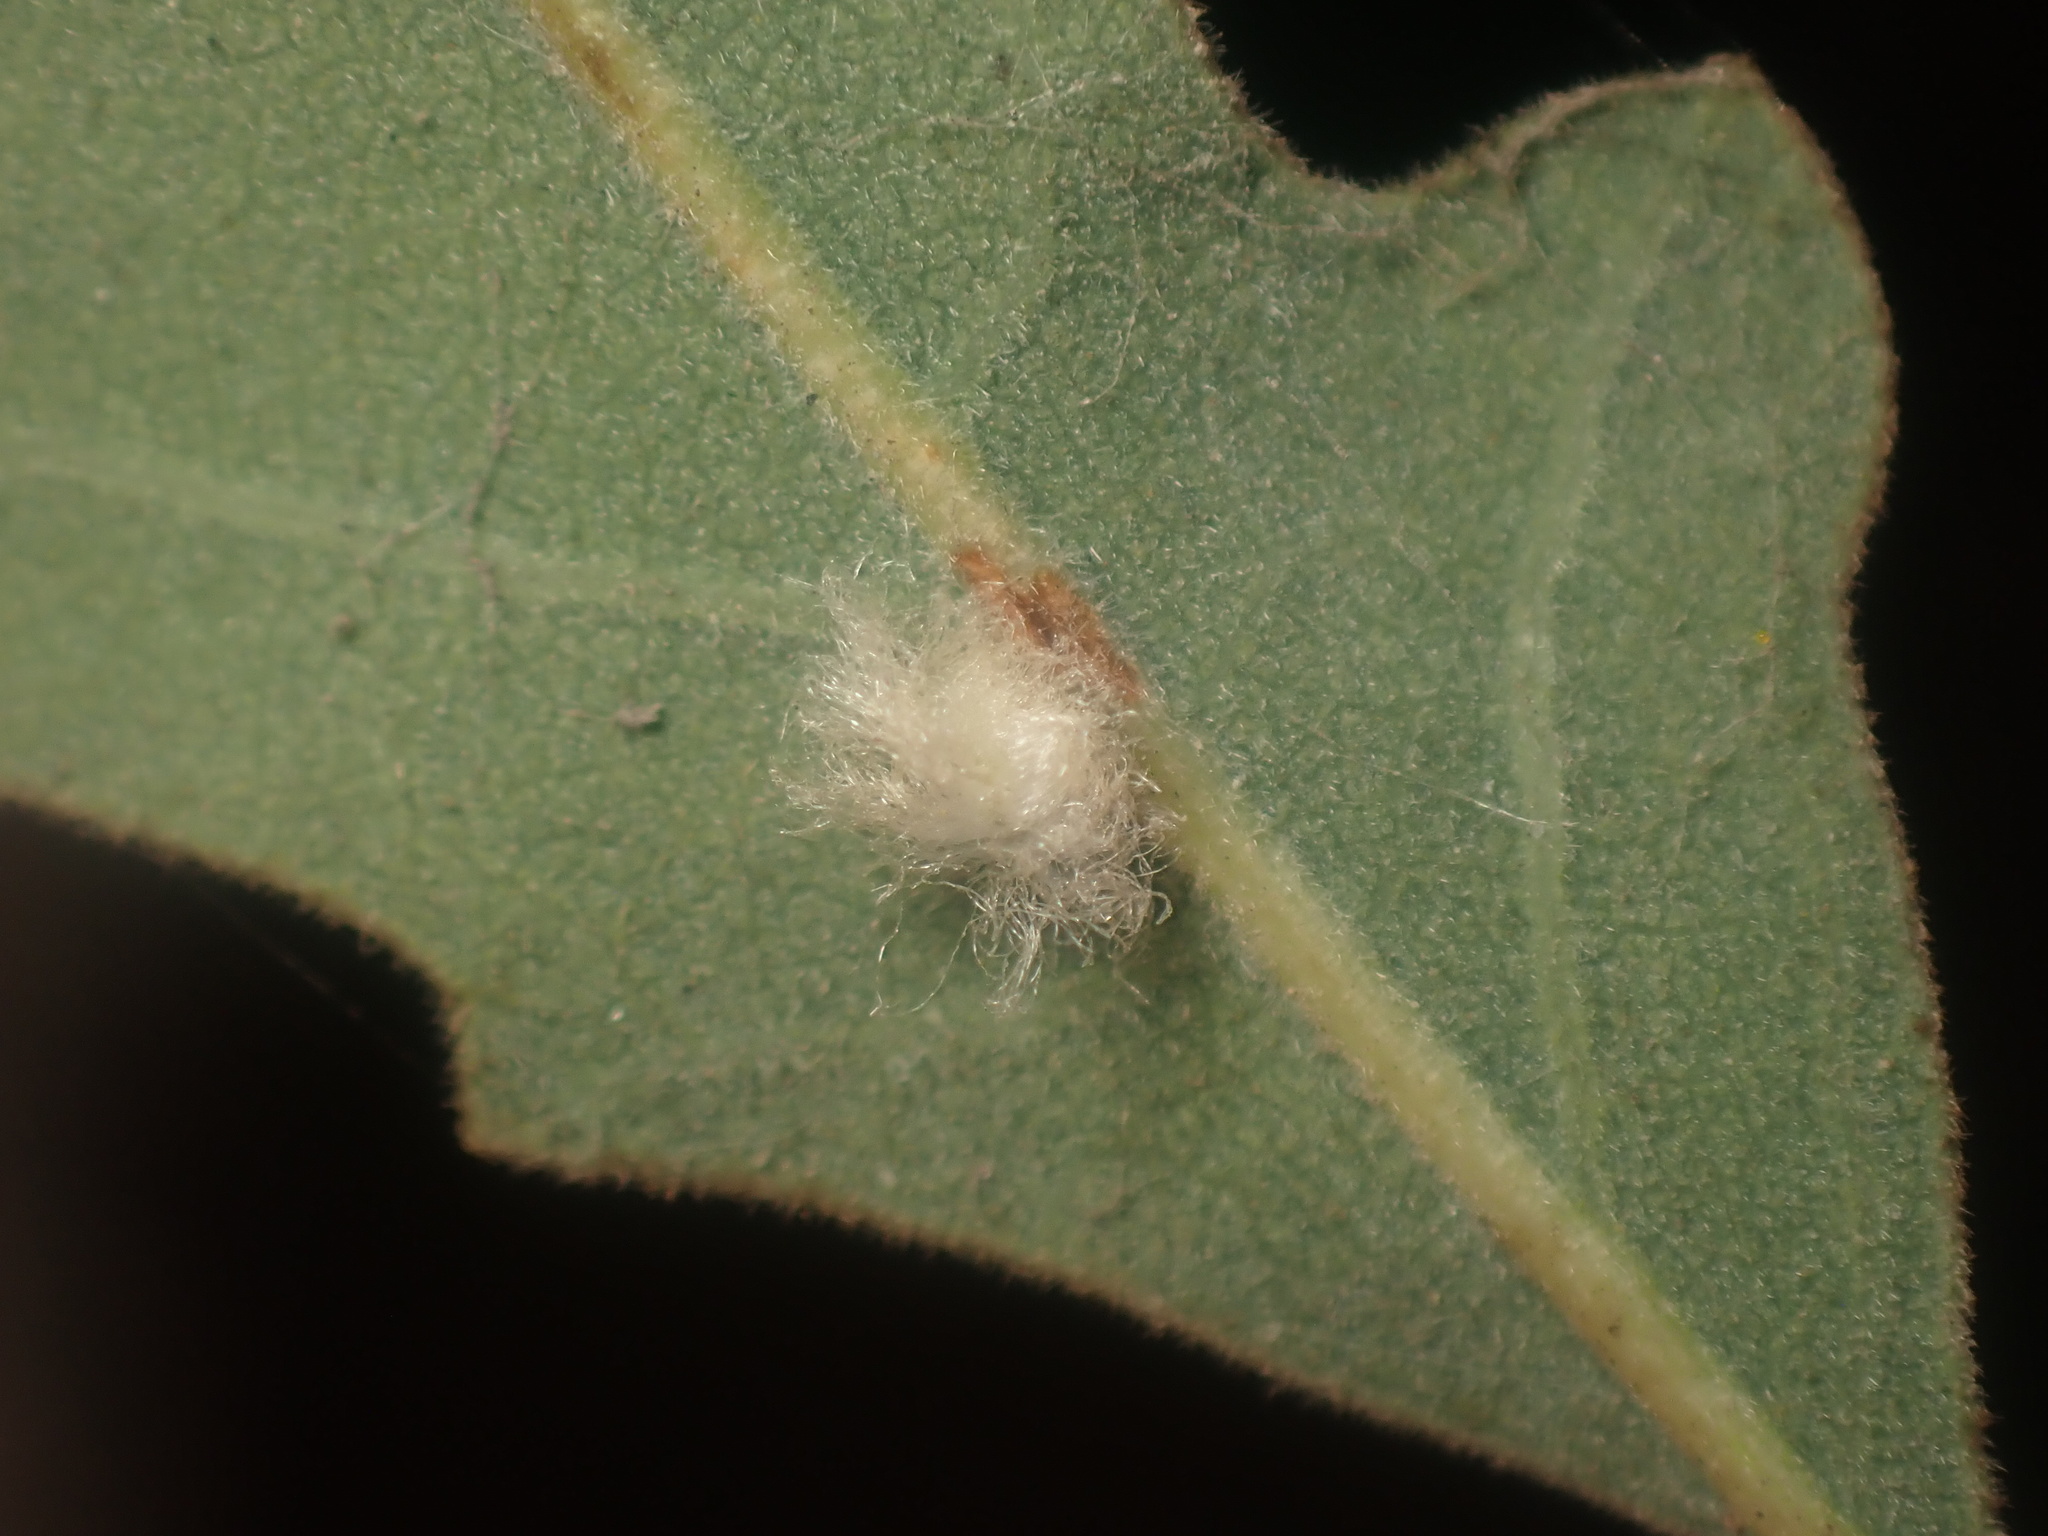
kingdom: Animalia
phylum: Arthropoda
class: Insecta
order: Hymenoptera
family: Cynipidae
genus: Andricus
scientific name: Andricus Druon fullawayi
